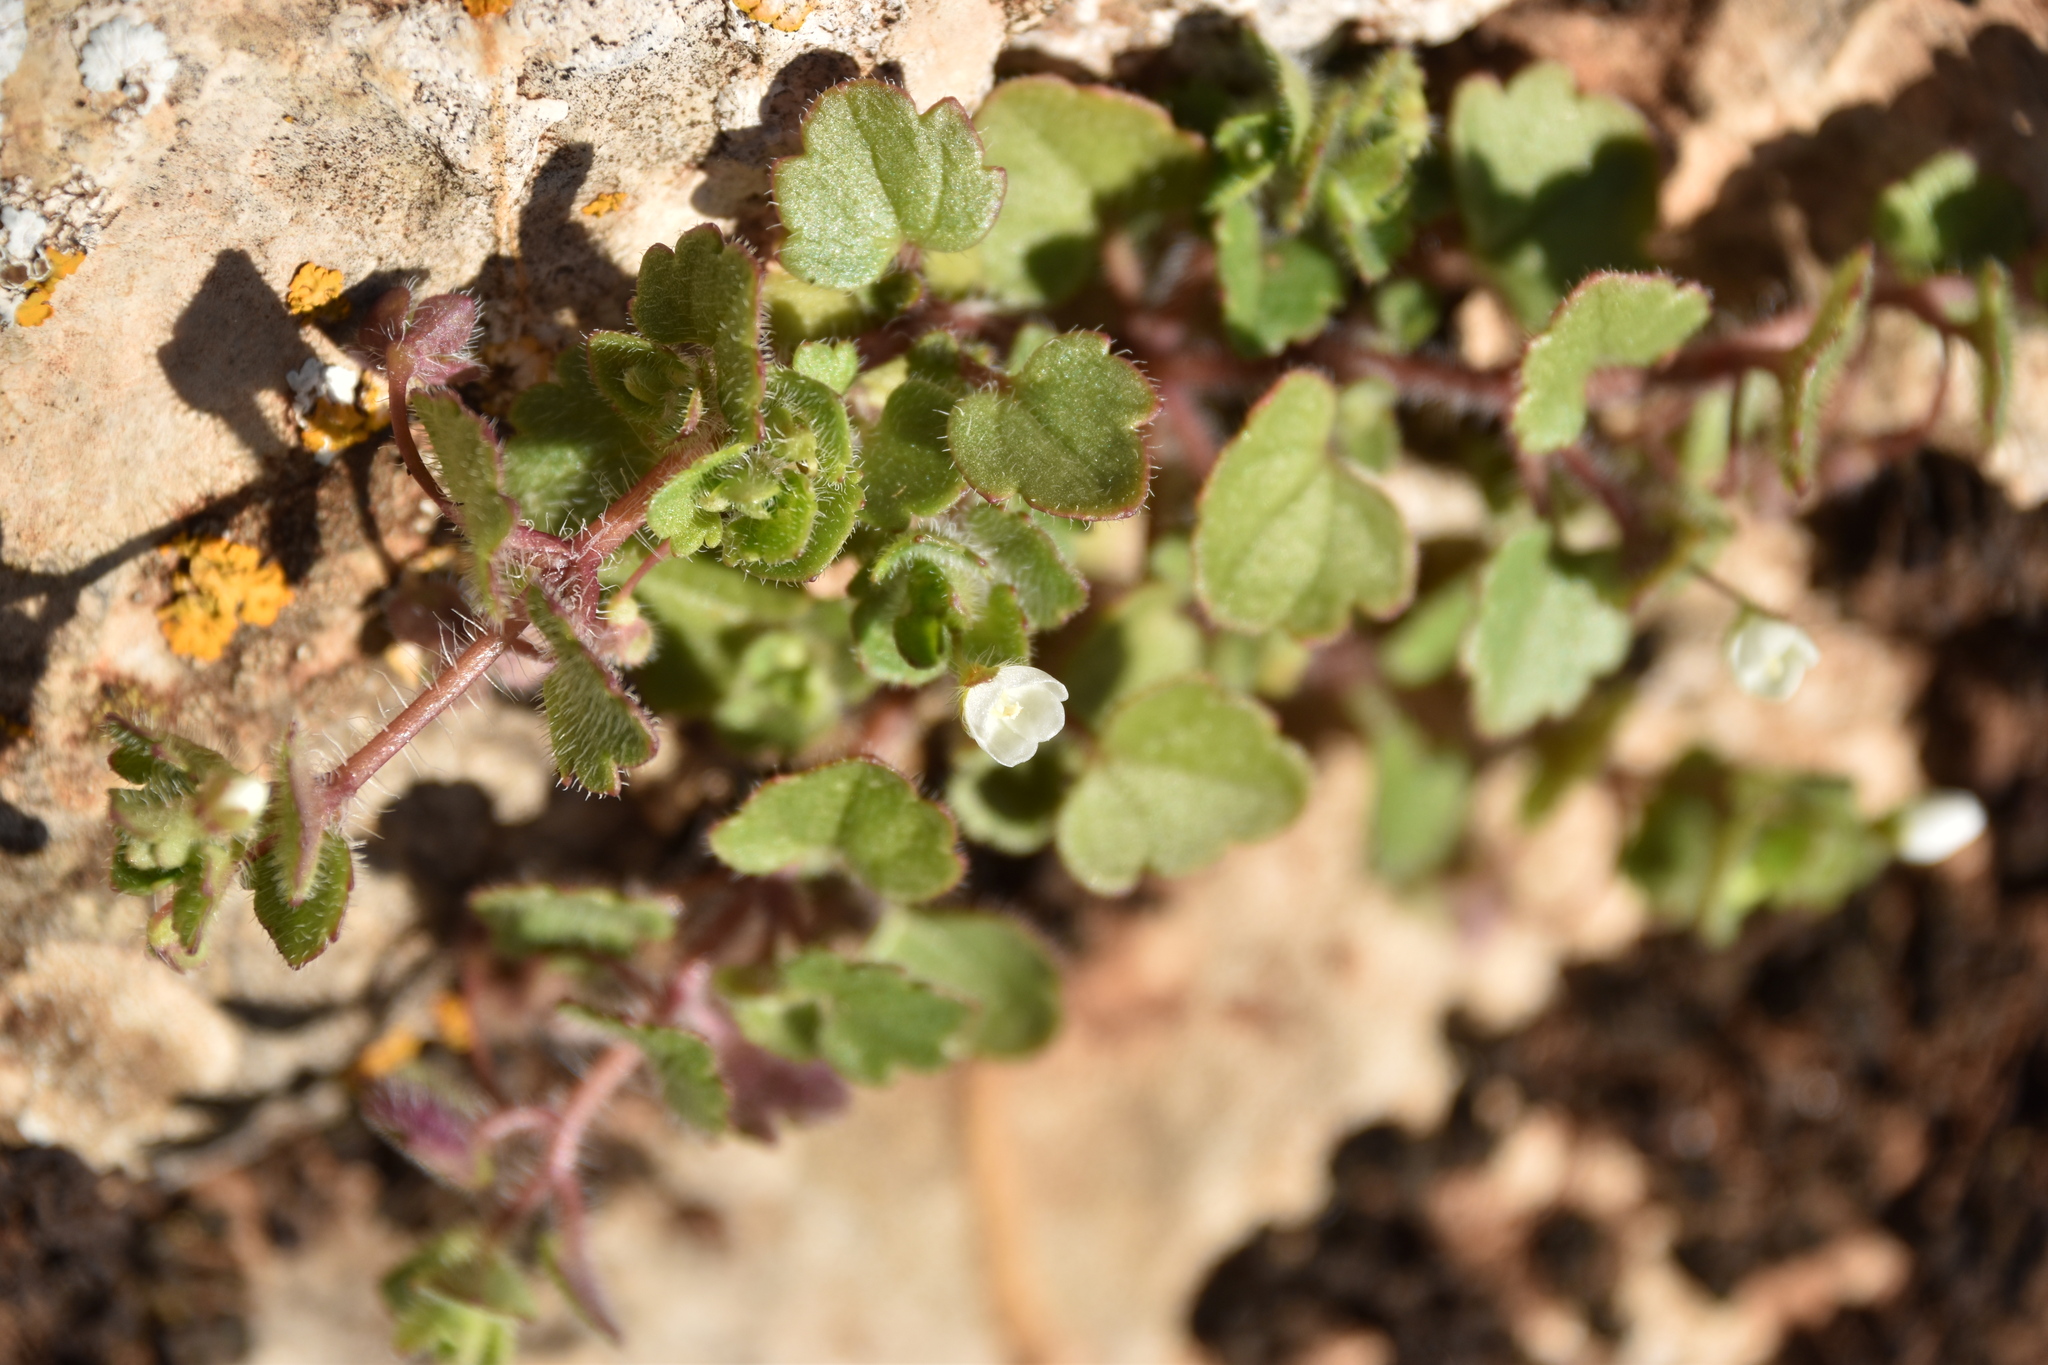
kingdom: Plantae
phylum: Tracheophyta
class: Magnoliopsida
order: Lamiales
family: Plantaginaceae
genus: Veronica
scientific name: Veronica cymbalaria
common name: Pale speedwell
